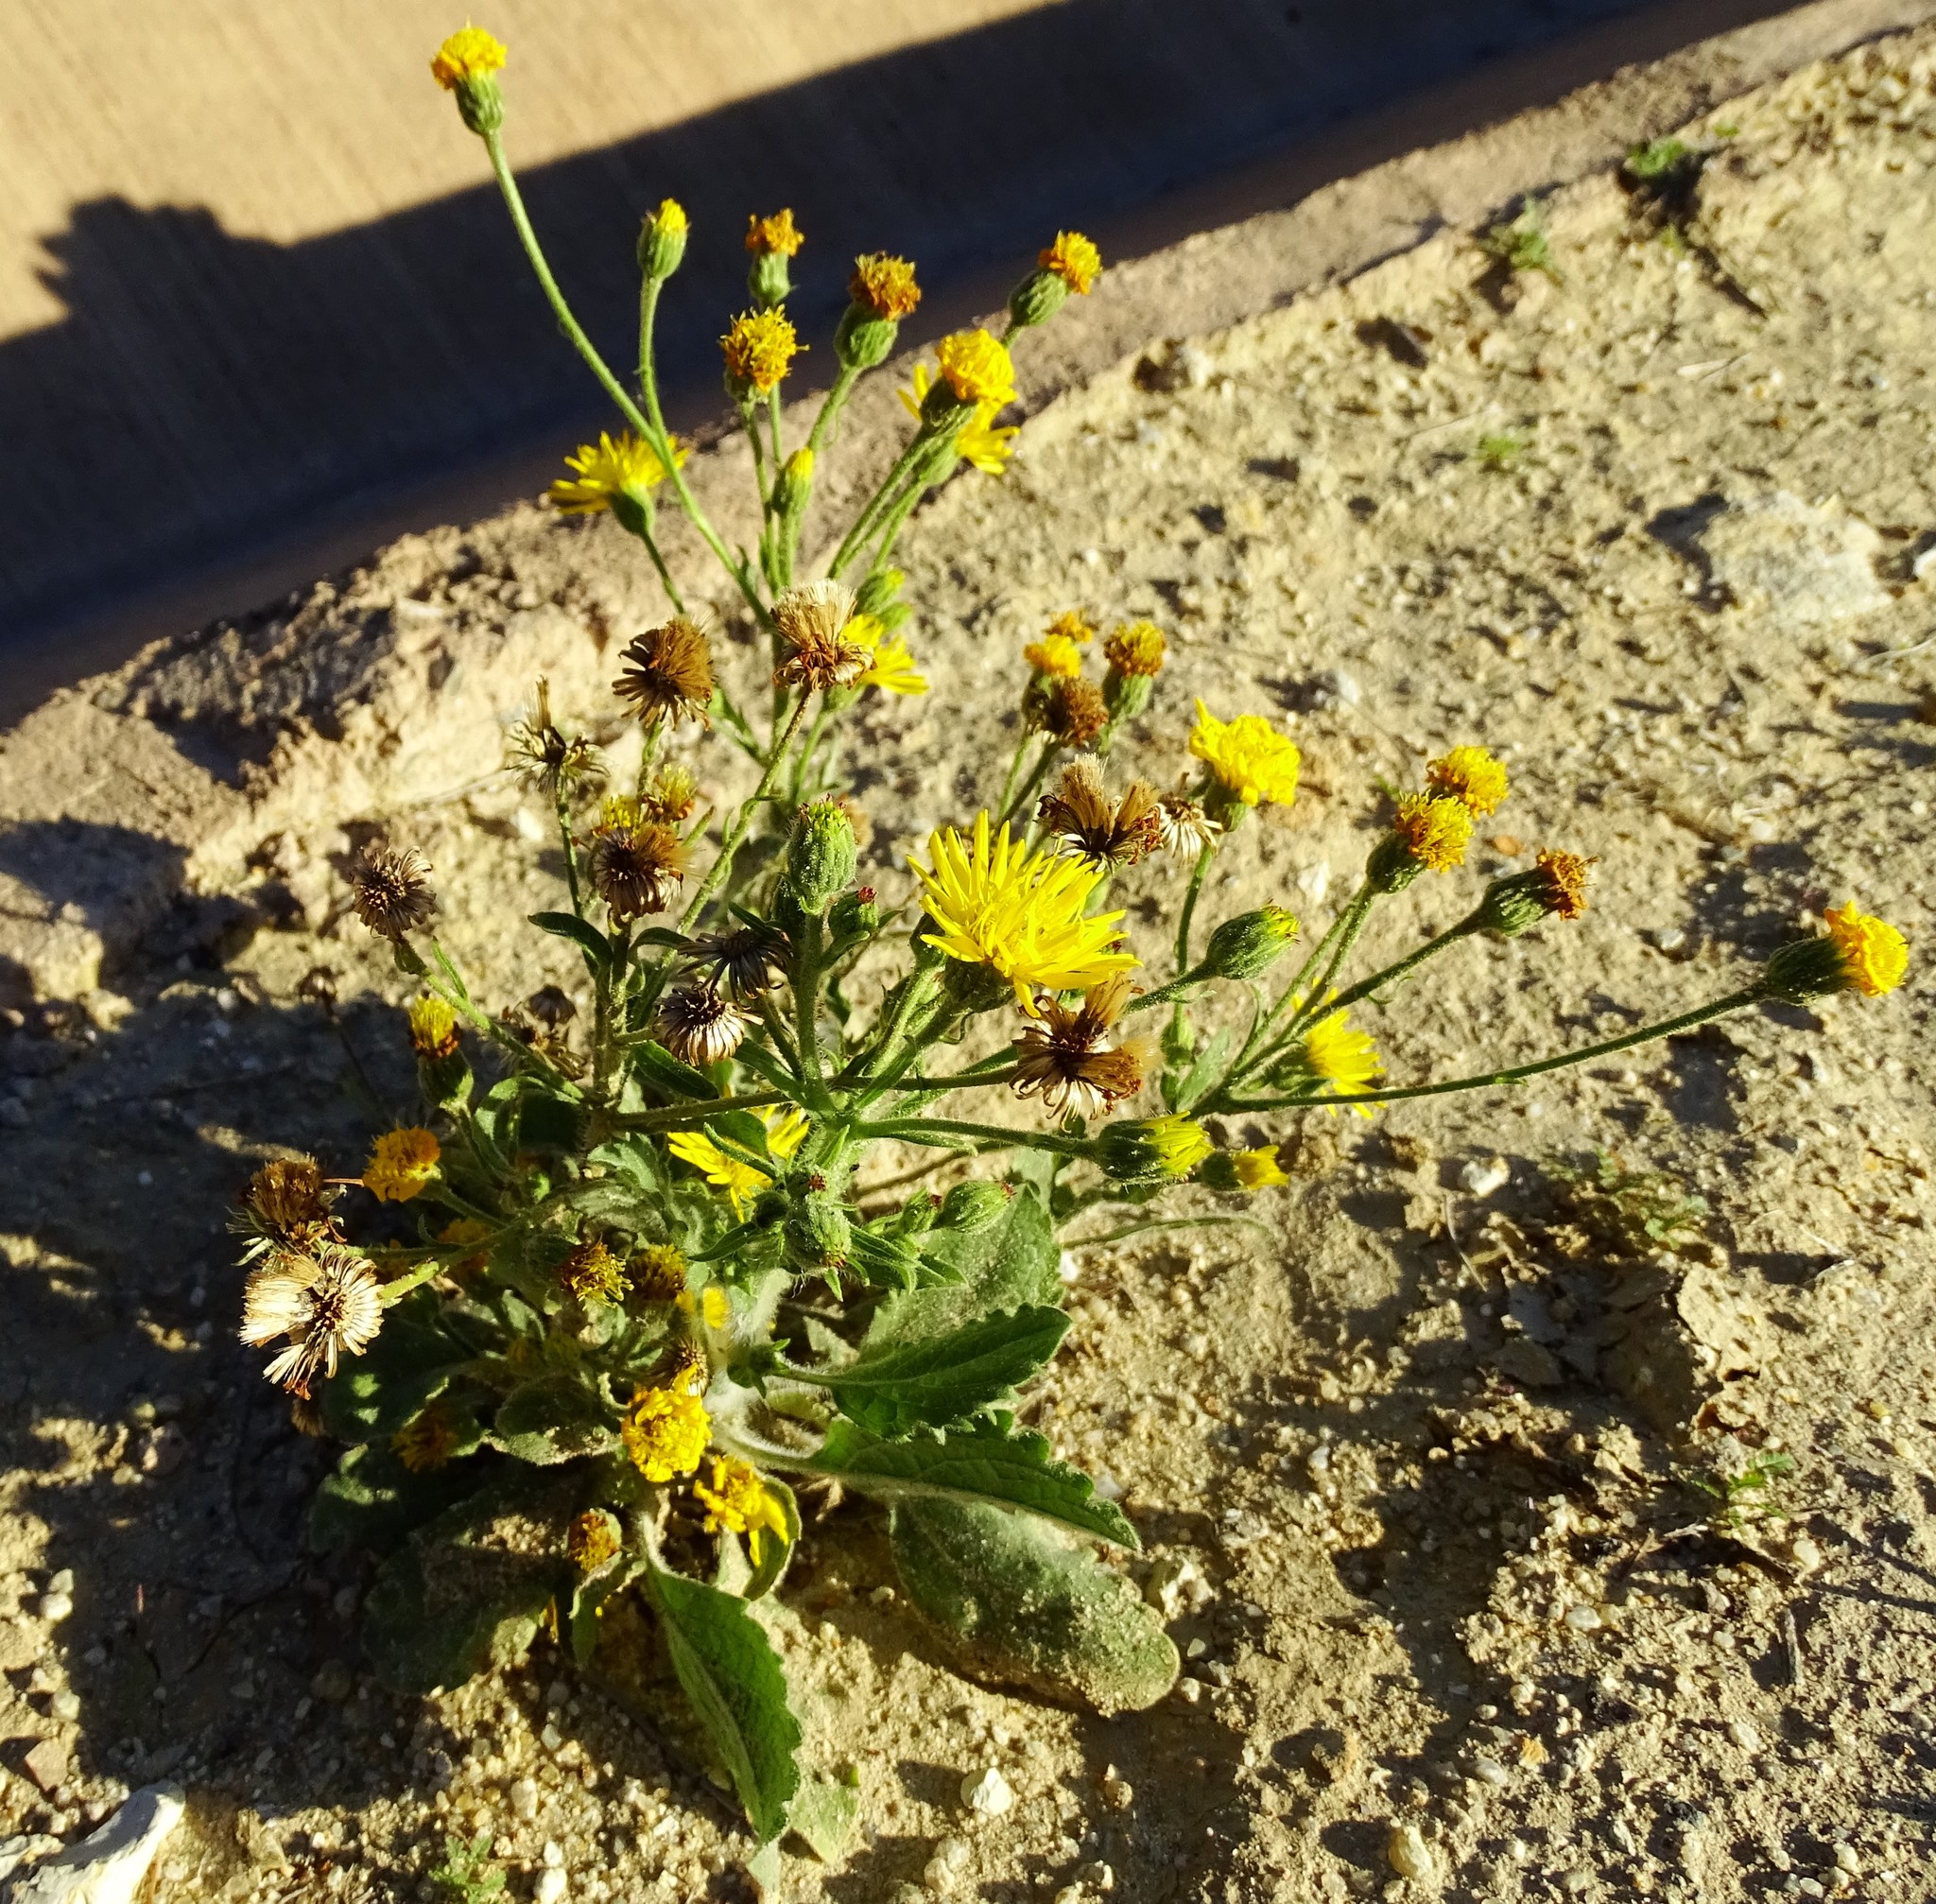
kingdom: Plantae
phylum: Tracheophyta
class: Magnoliopsida
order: Asterales
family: Asteraceae
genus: Heterotheca
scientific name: Heterotheca grandiflora
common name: Telegraphweed
